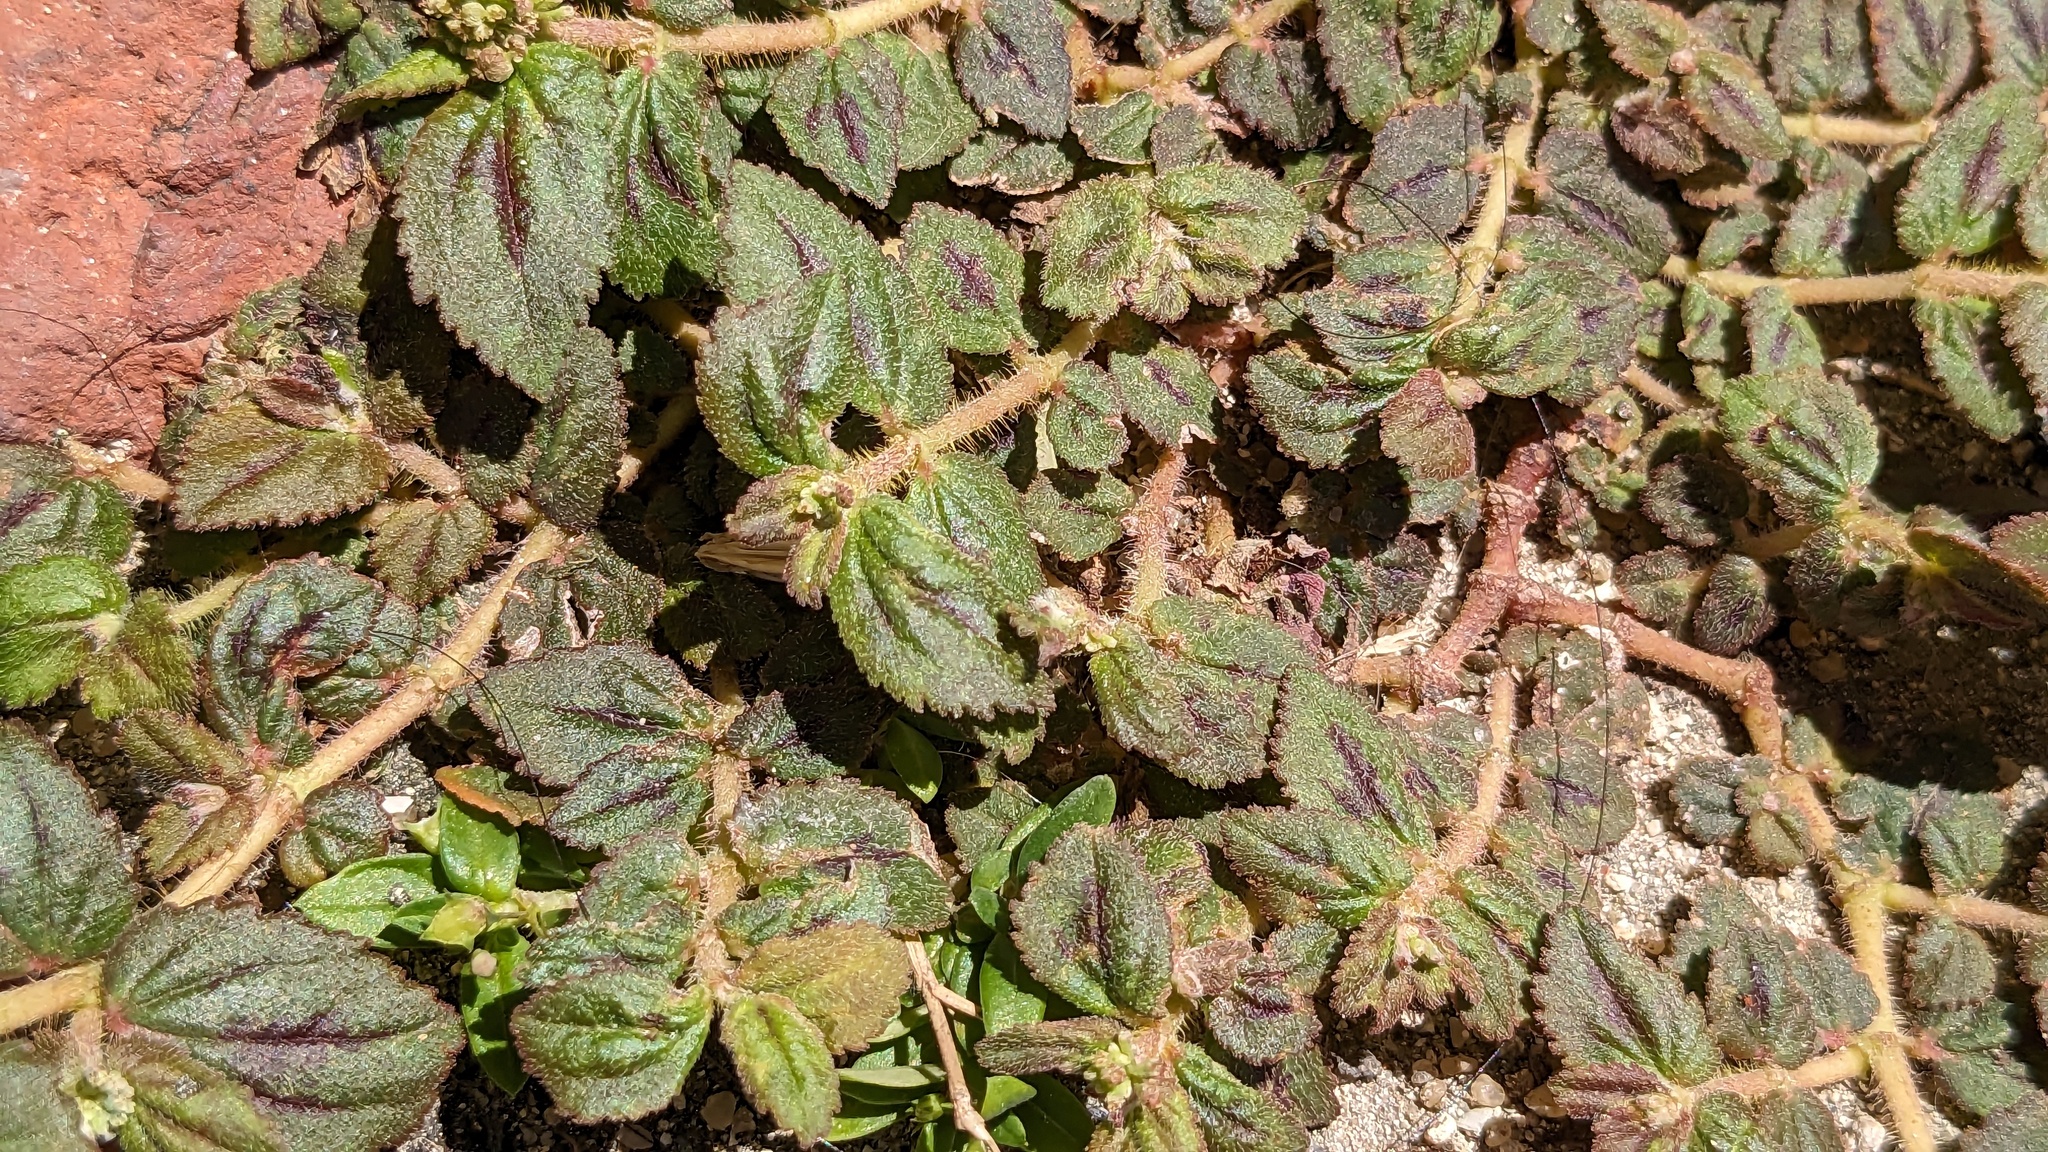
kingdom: Plantae
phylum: Tracheophyta
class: Magnoliopsida
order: Malpighiales
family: Euphorbiaceae
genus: Euphorbia
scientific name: Euphorbia hirta
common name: Pillpod sandmat
